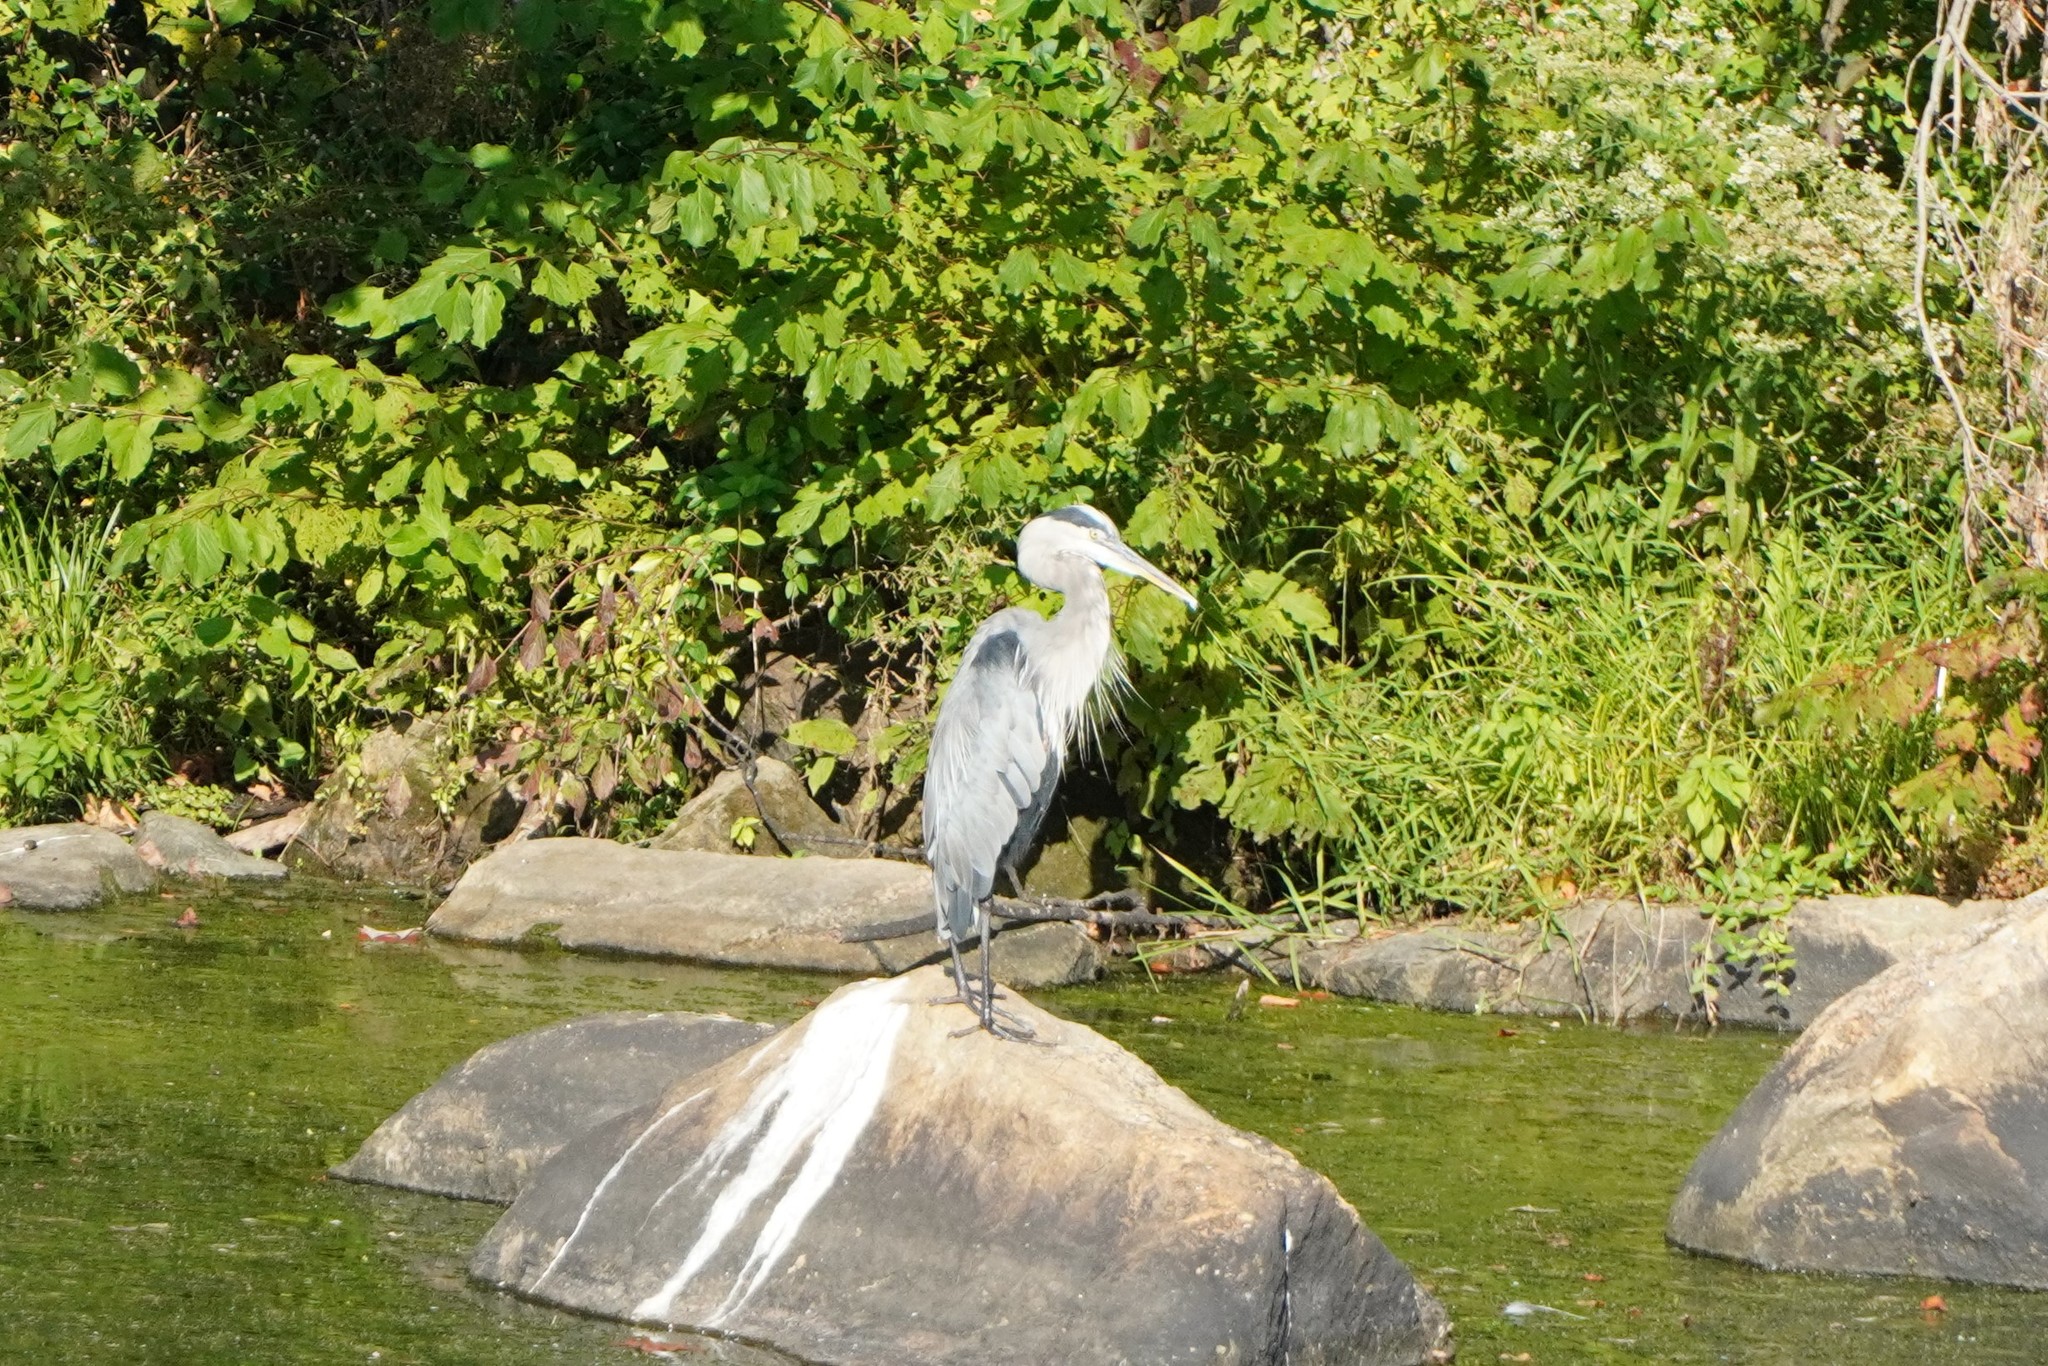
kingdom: Animalia
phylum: Chordata
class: Aves
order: Pelecaniformes
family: Ardeidae
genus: Ardea
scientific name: Ardea herodias
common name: Great blue heron
